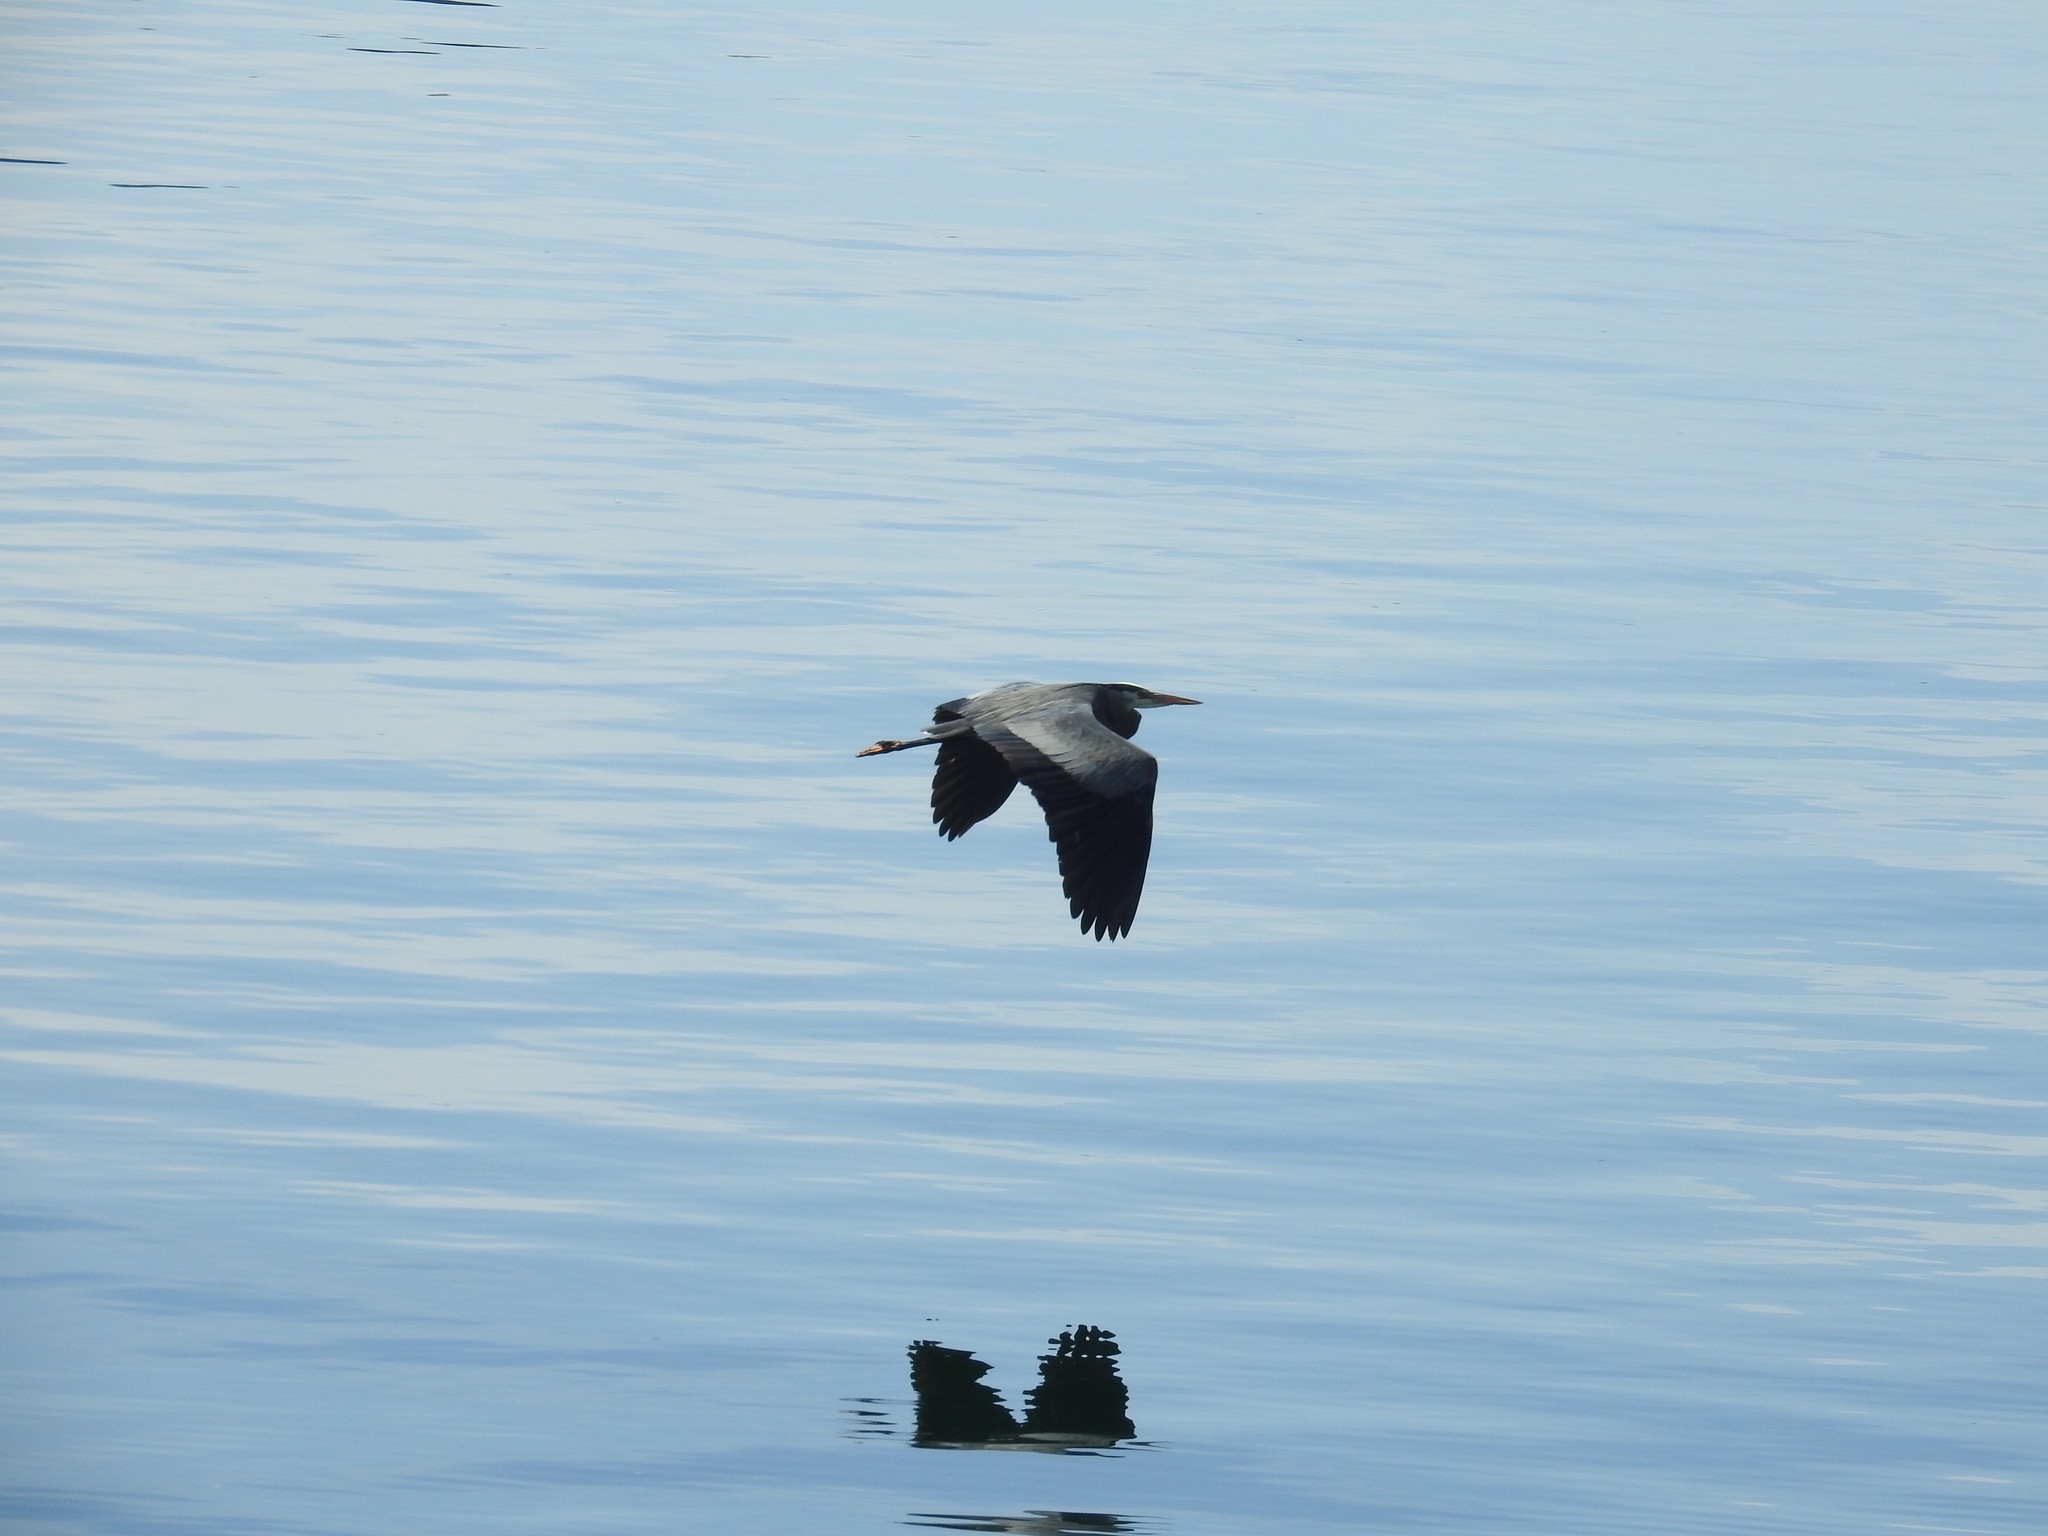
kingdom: Animalia
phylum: Chordata
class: Aves
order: Pelecaniformes
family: Ardeidae
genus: Ardea
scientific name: Ardea herodias
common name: Great blue heron
